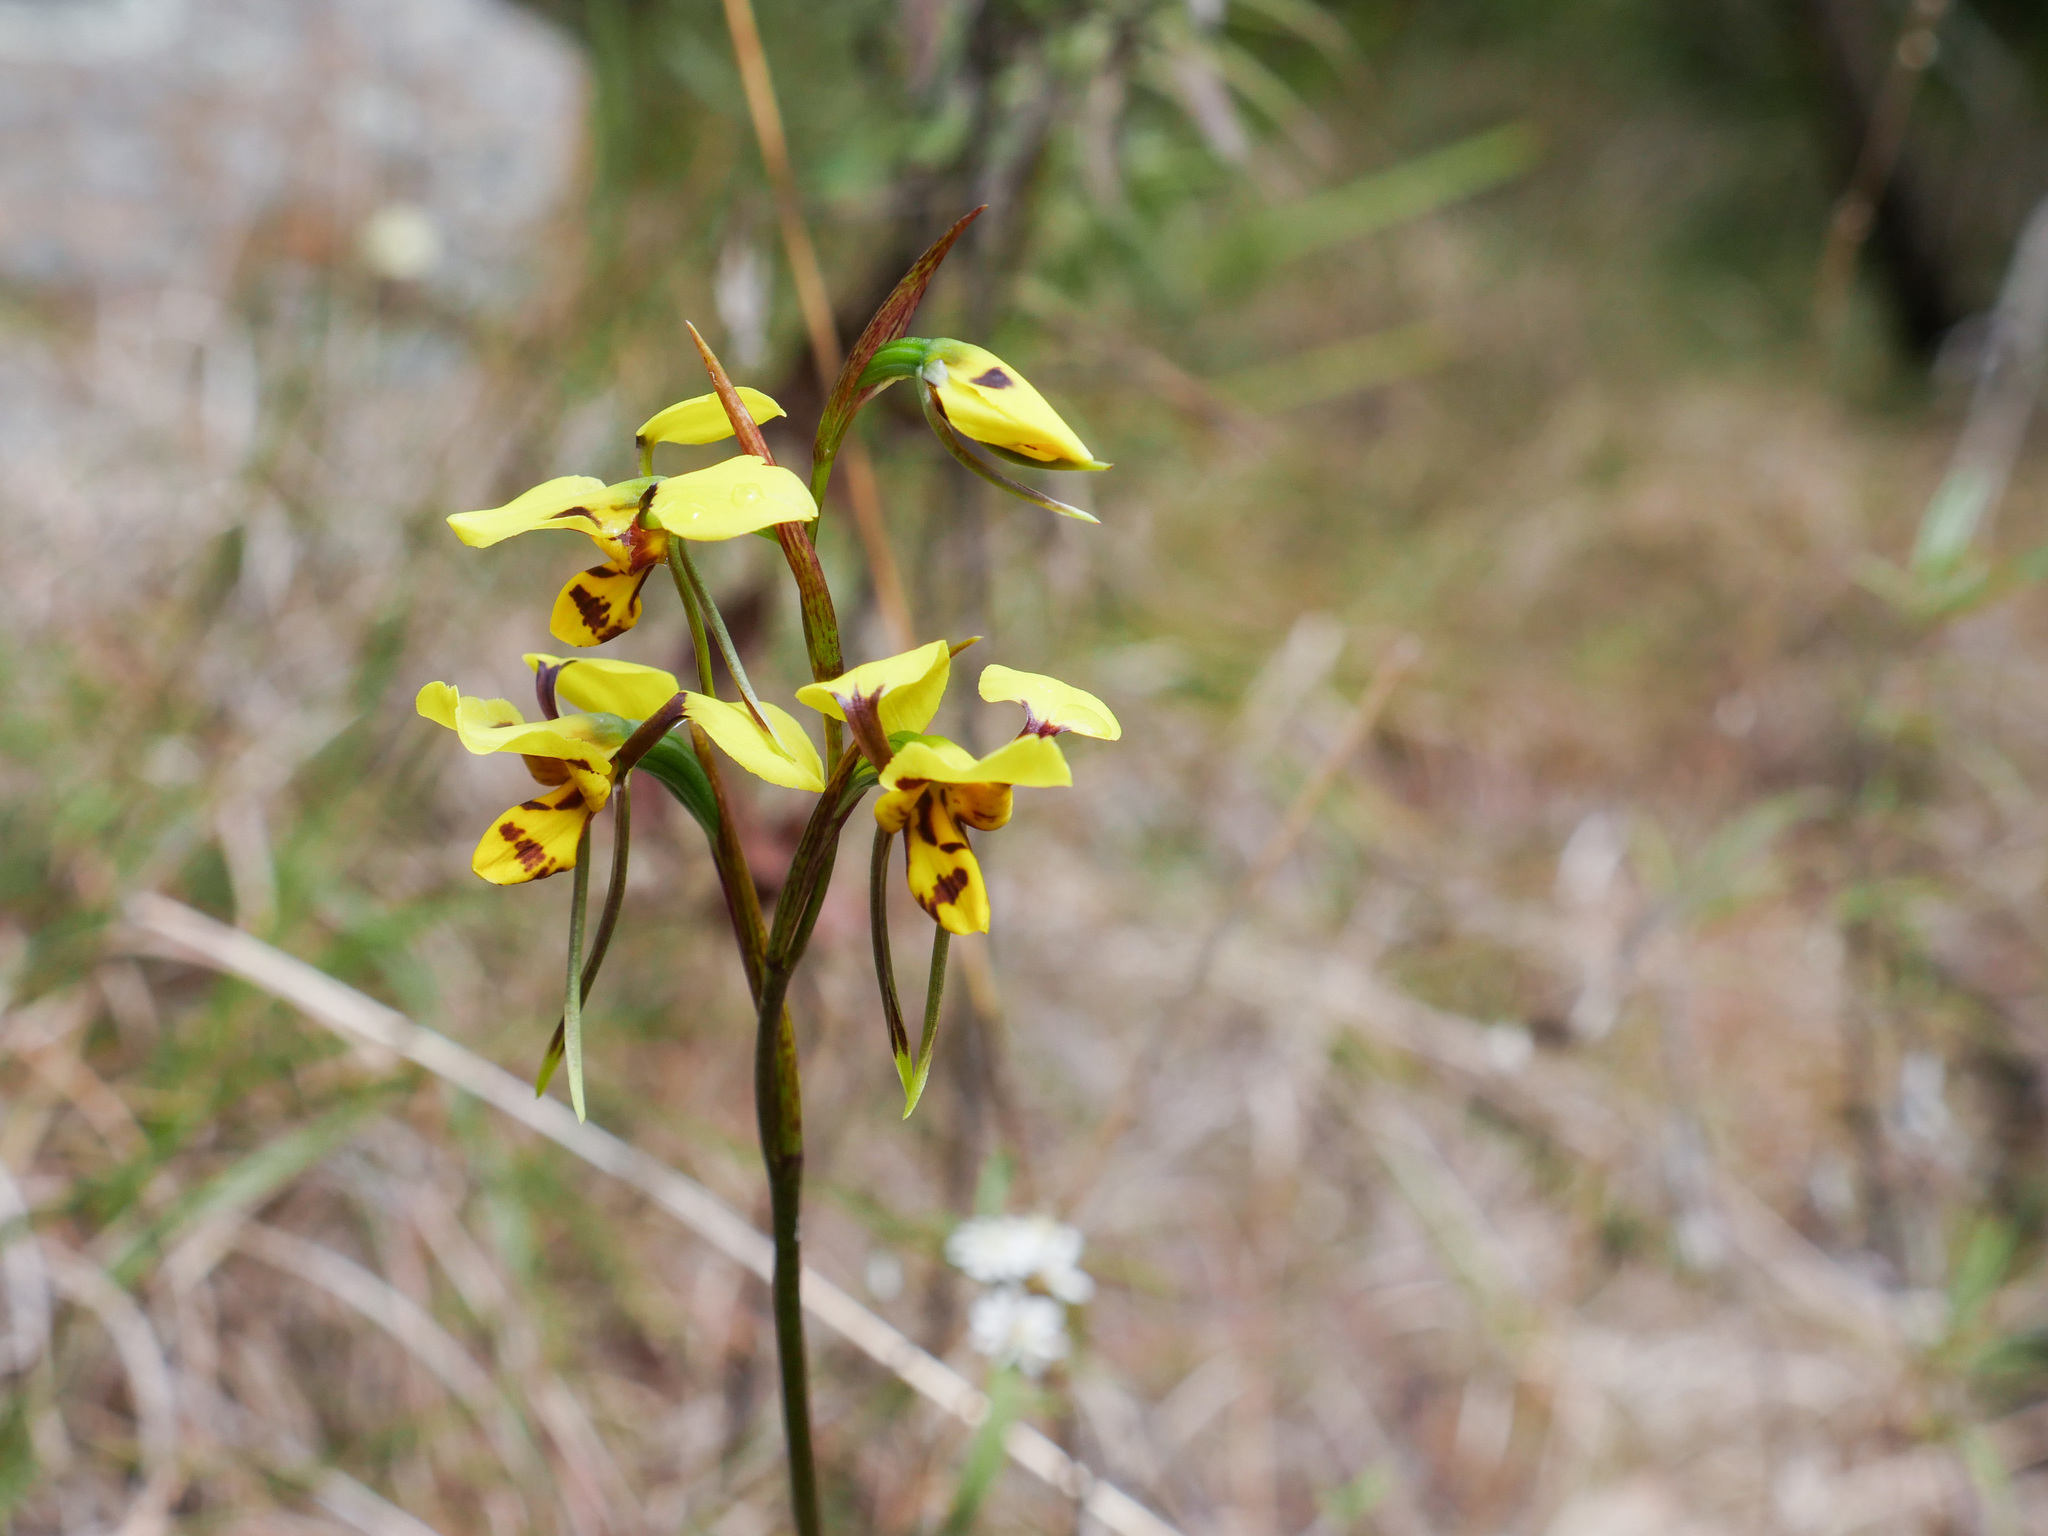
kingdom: Plantae
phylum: Tracheophyta
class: Liliopsida
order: Asparagales
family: Orchidaceae
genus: Diuris
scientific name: Diuris sulphurea
